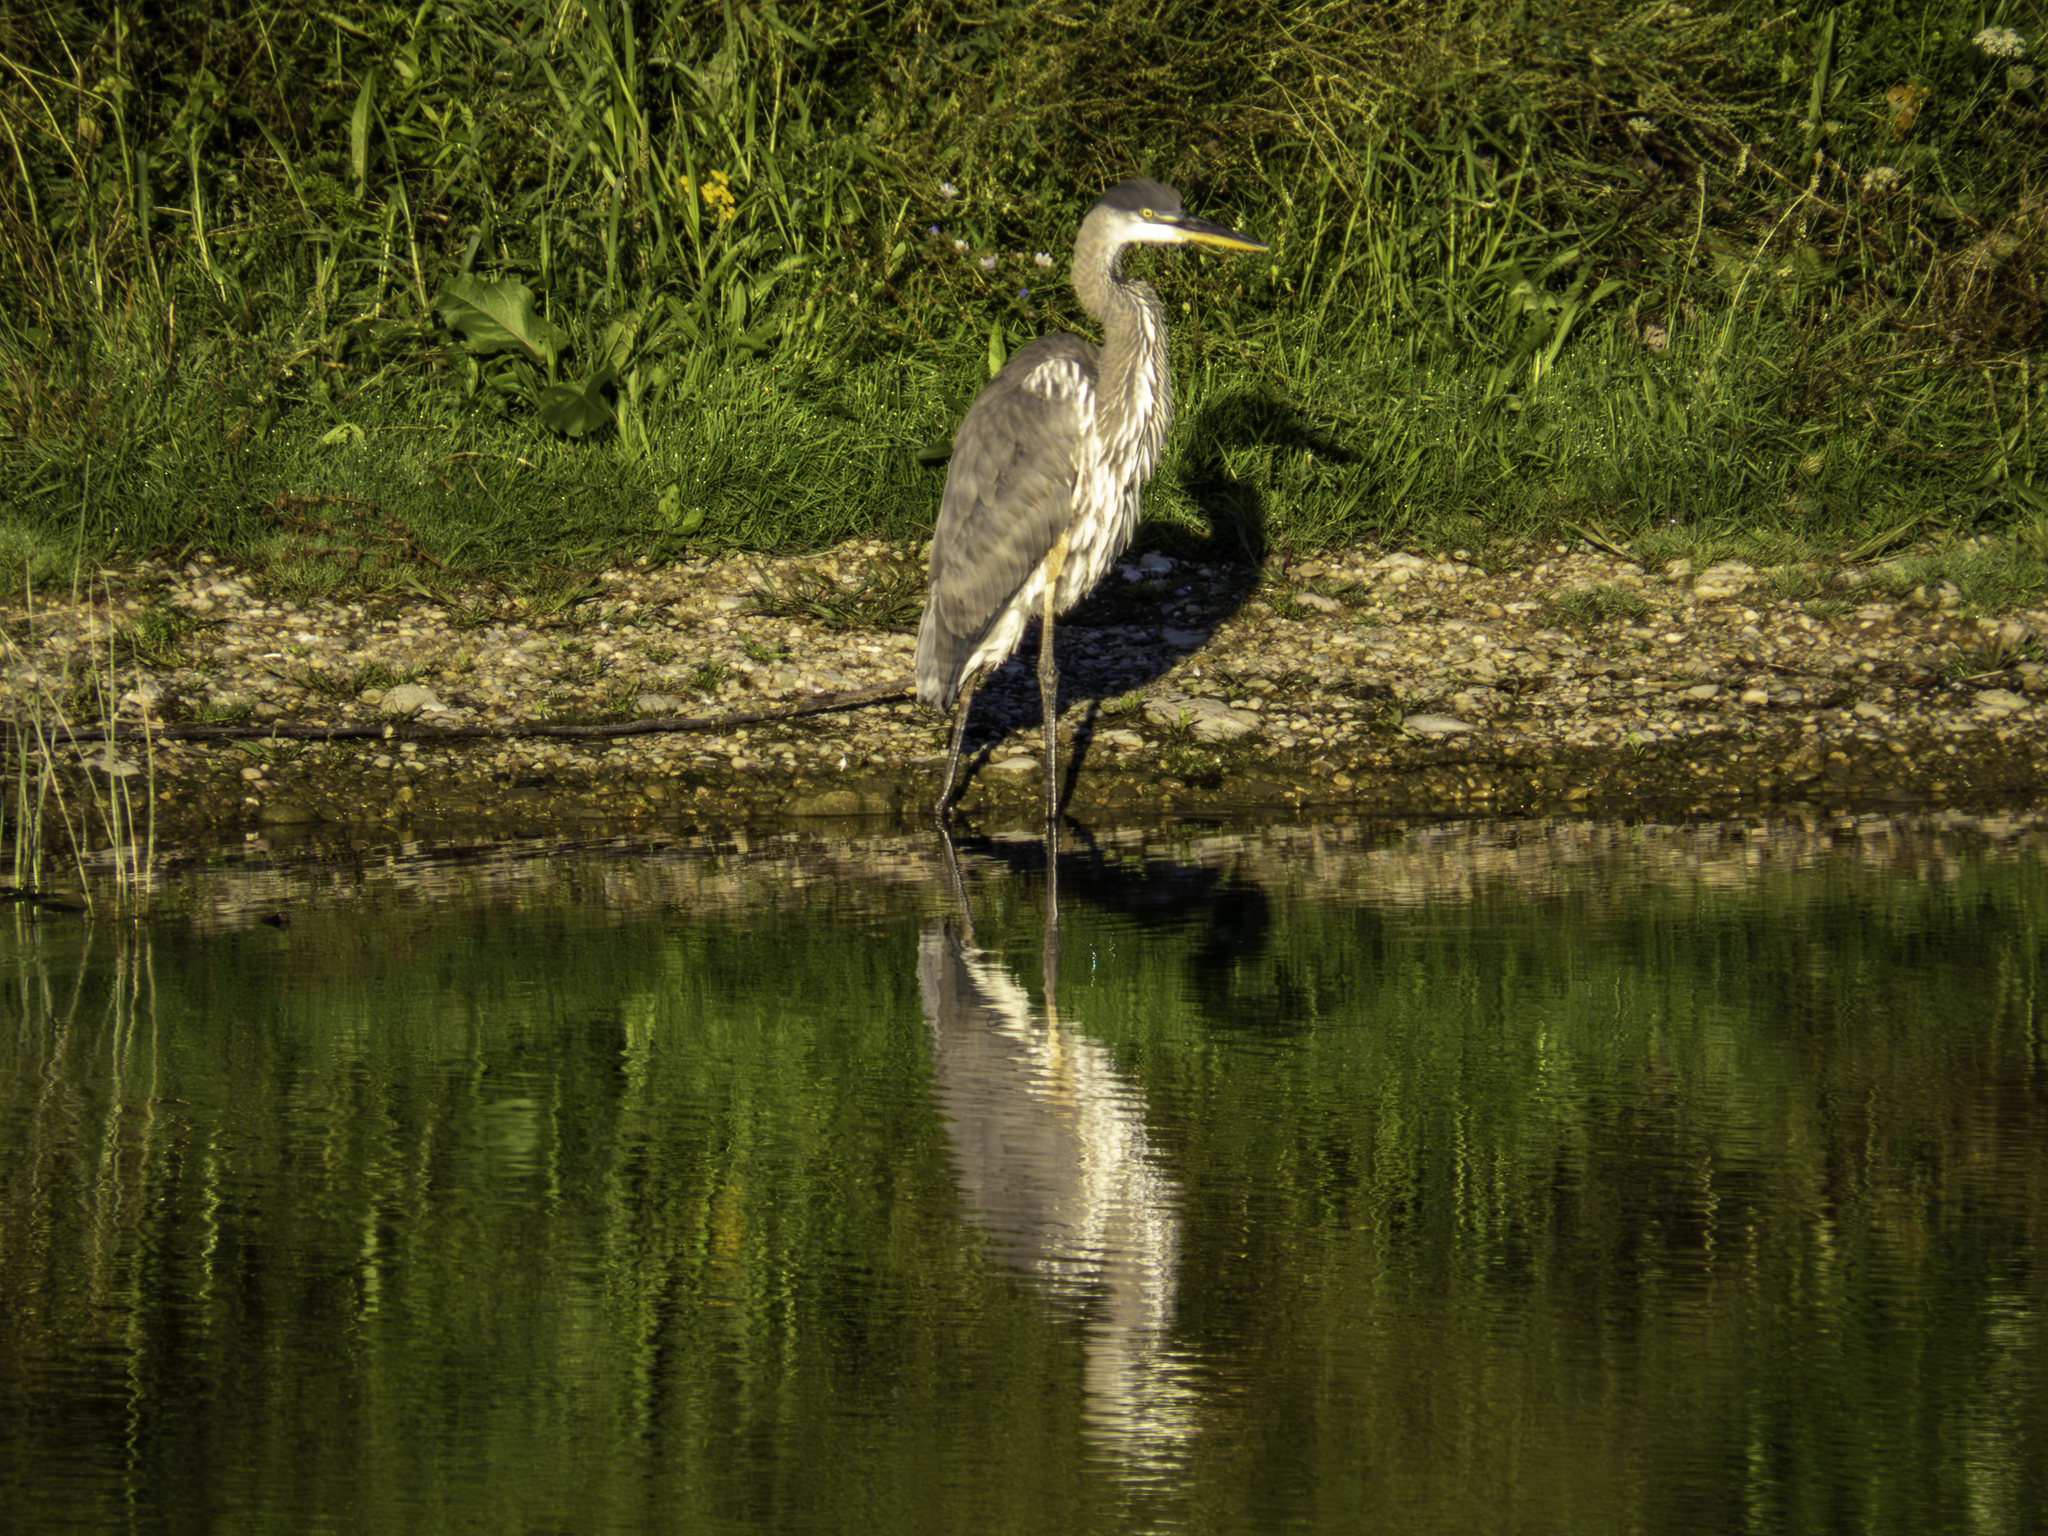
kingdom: Animalia
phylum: Chordata
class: Aves
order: Pelecaniformes
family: Ardeidae
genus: Ardea
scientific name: Ardea herodias
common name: Great blue heron
